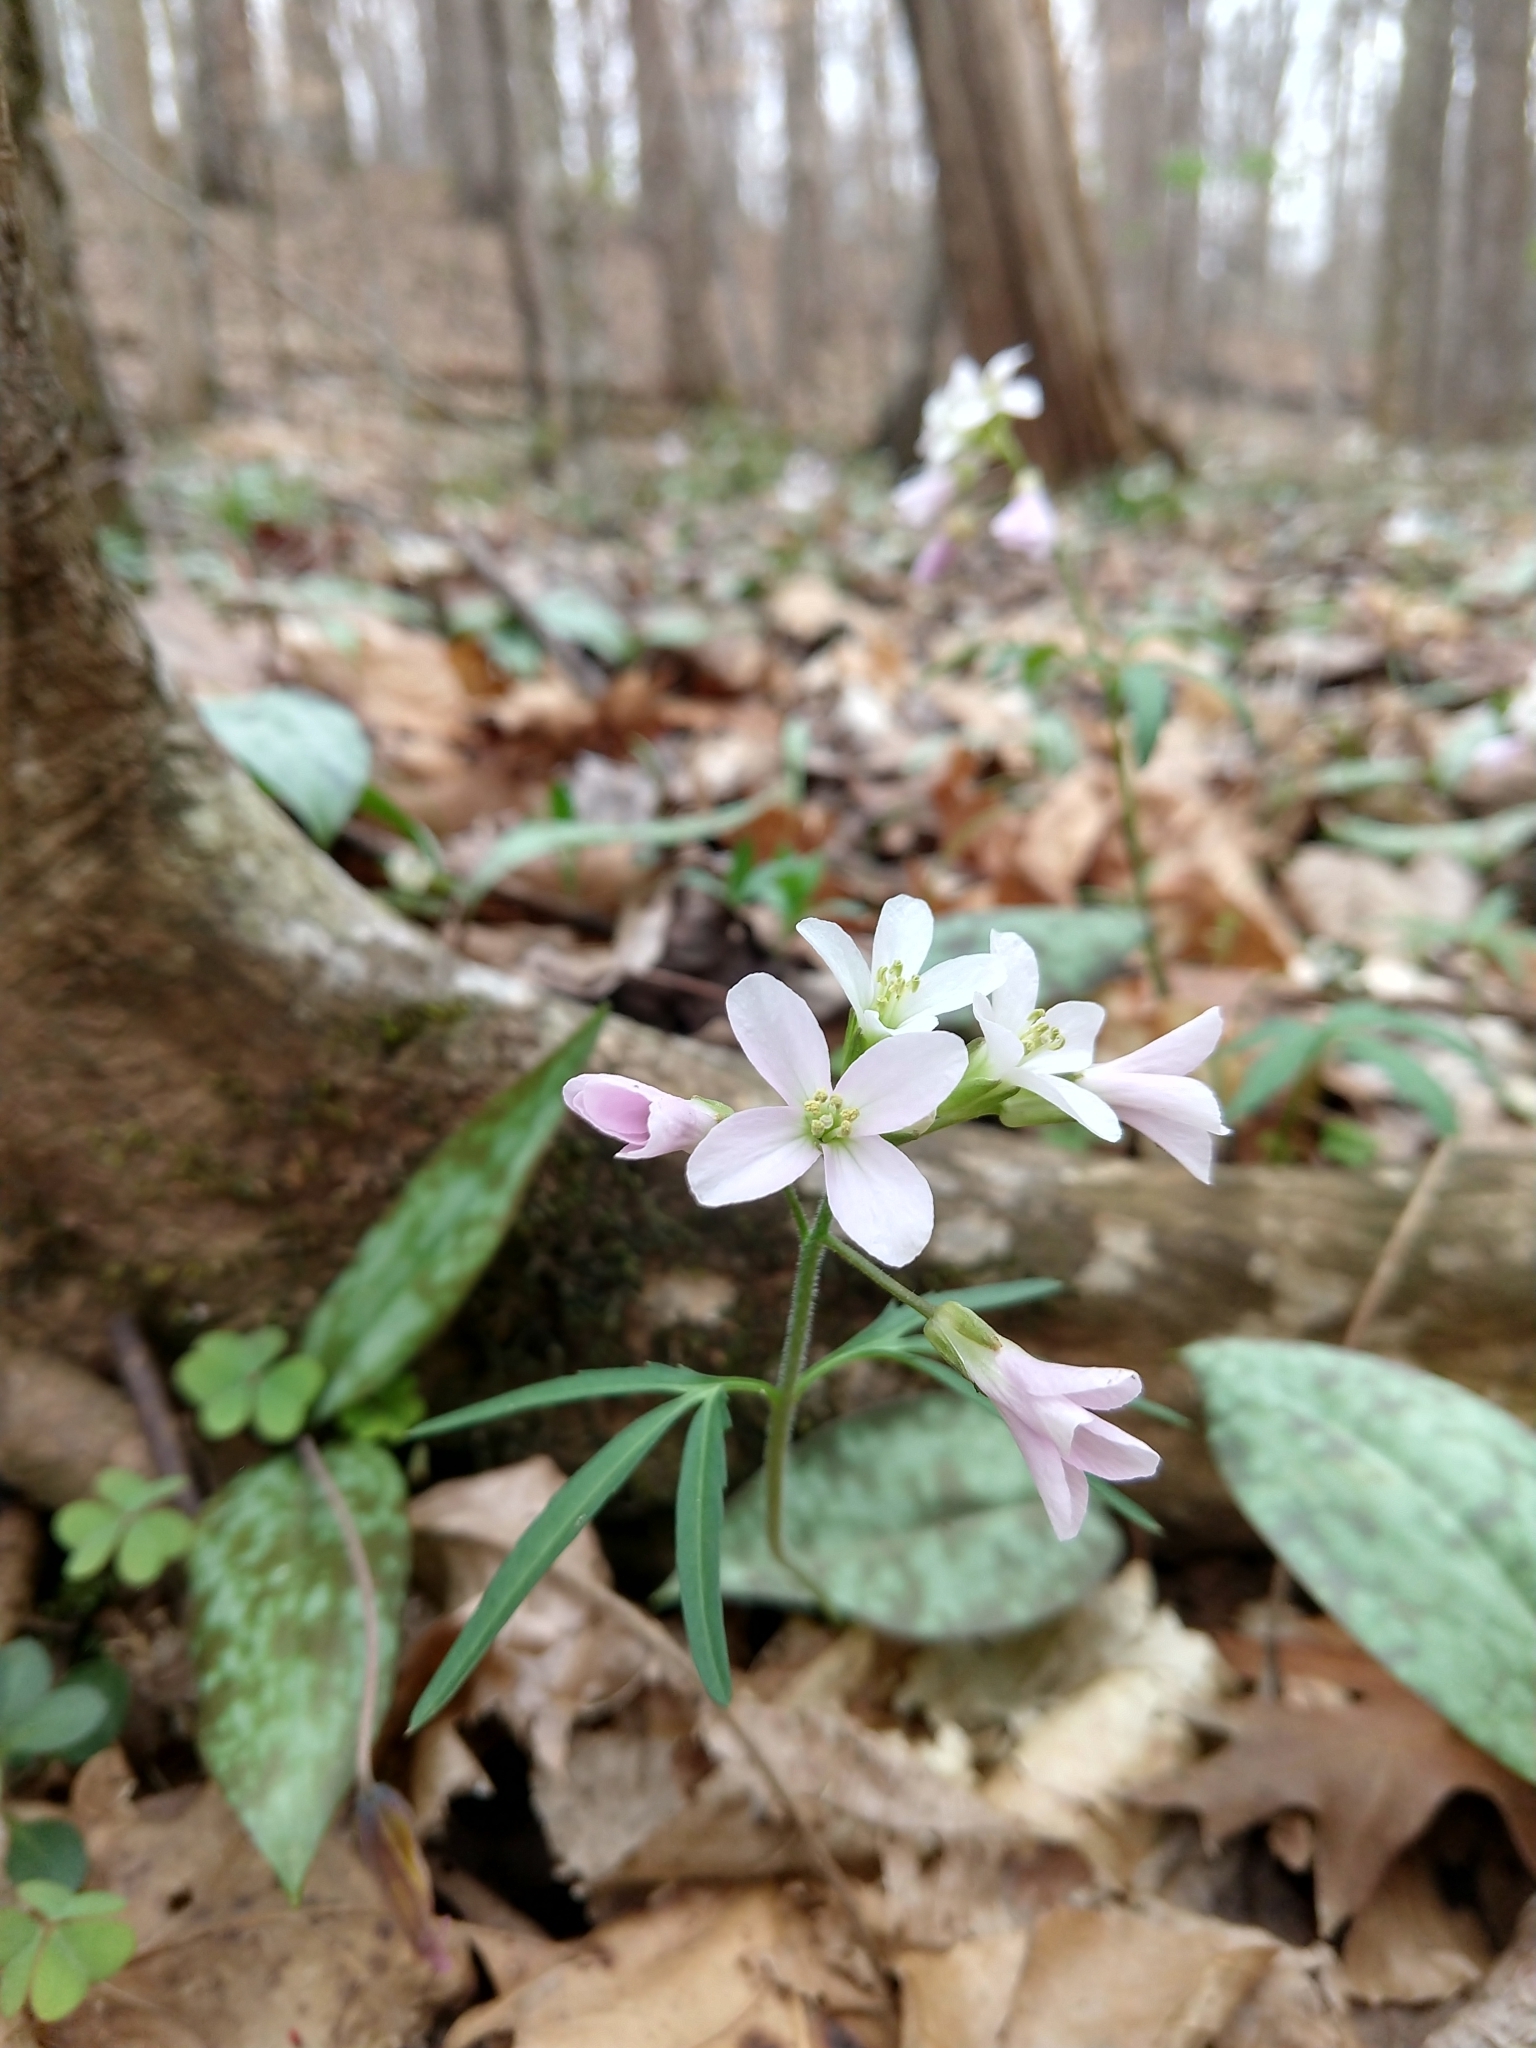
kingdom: Plantae
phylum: Tracheophyta
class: Magnoliopsida
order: Brassicales
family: Brassicaceae
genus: Cardamine
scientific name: Cardamine concatenata
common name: Cut-leaf toothcup
